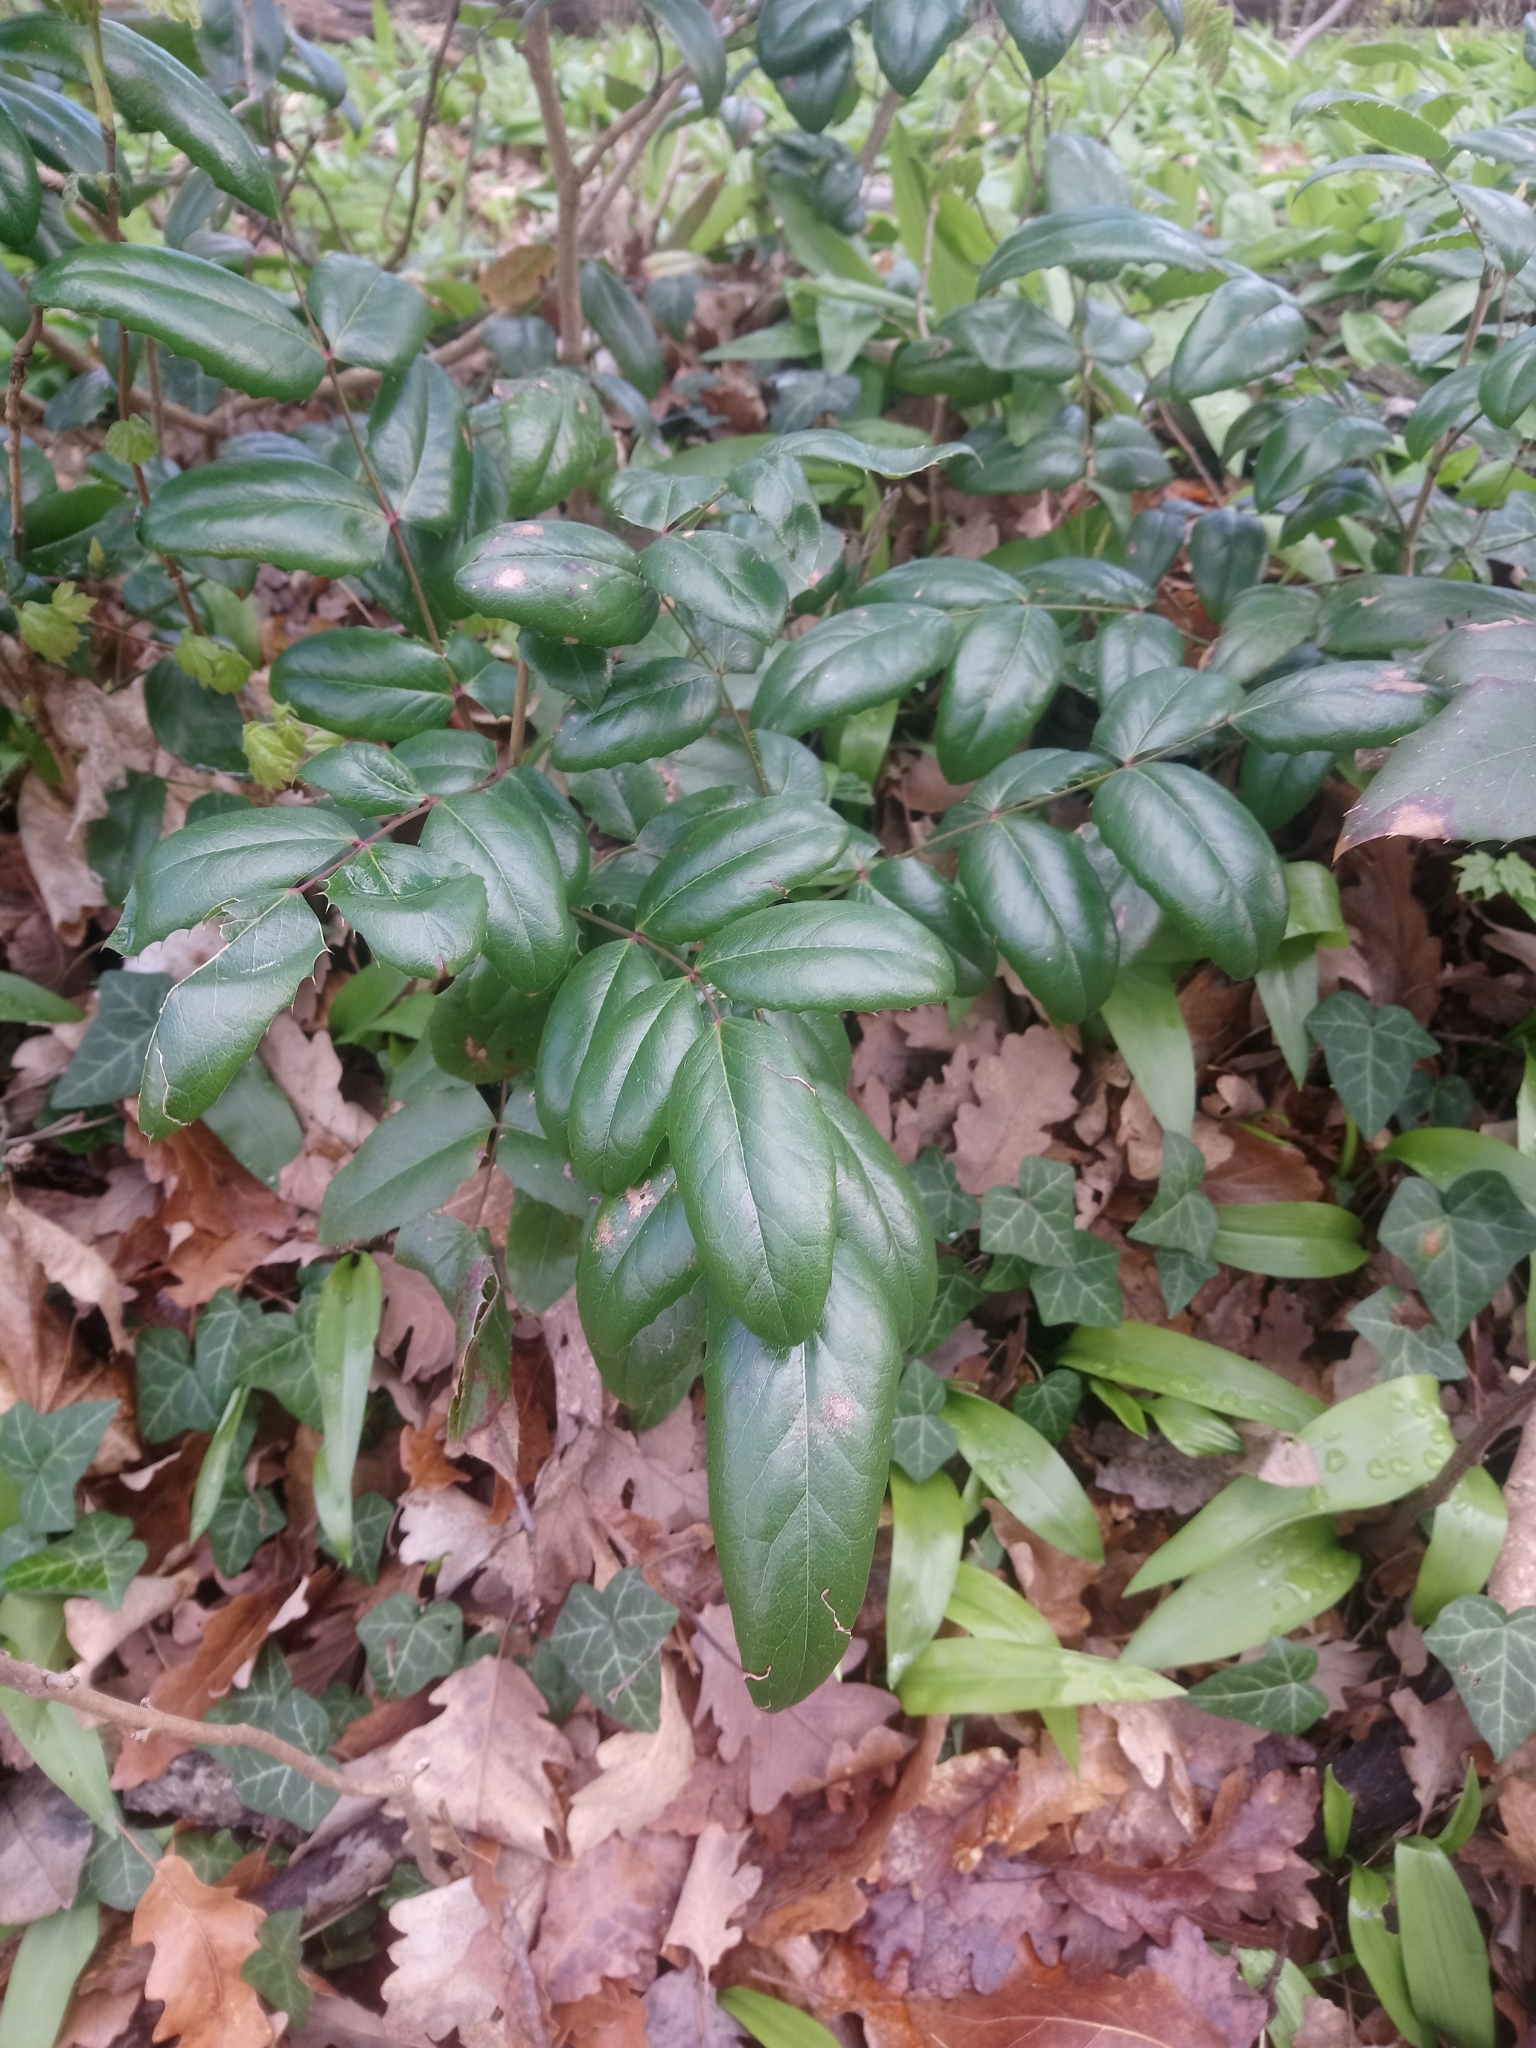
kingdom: Plantae
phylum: Tracheophyta
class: Magnoliopsida
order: Ranunculales
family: Berberidaceae
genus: Mahonia
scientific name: Mahonia aquifolium
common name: Oregon-grape
